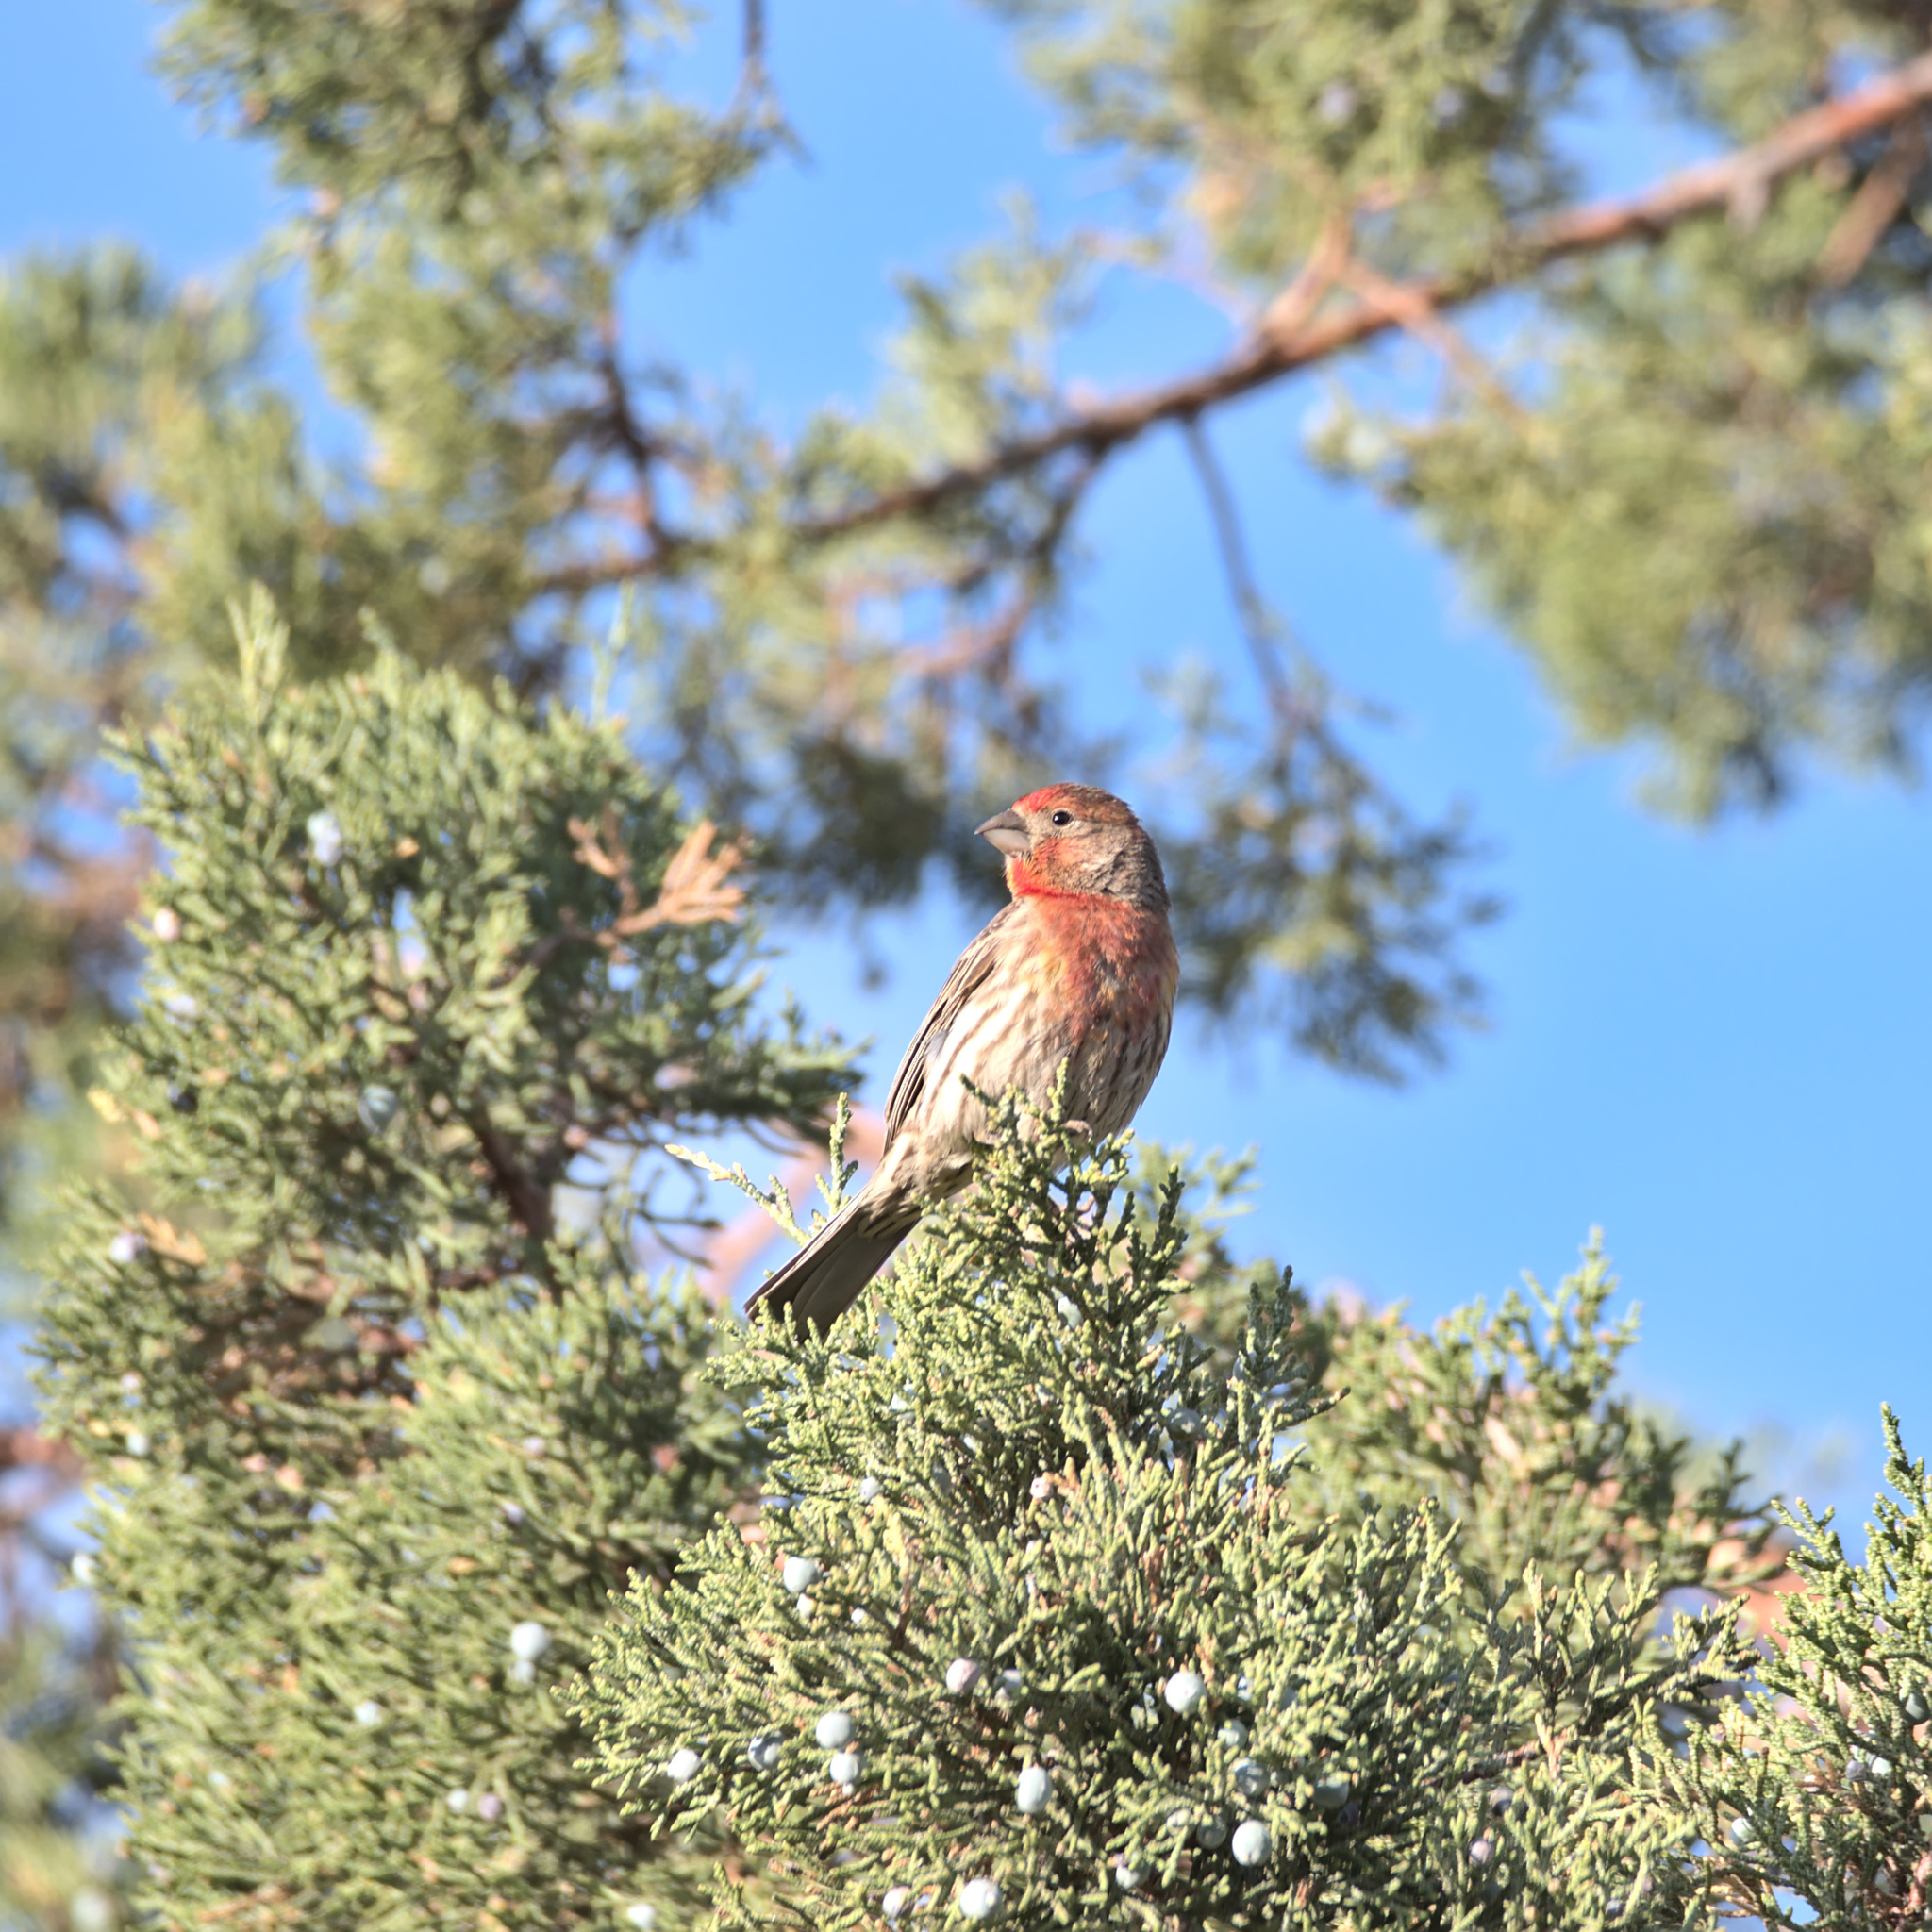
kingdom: Animalia
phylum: Chordata
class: Aves
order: Passeriformes
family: Fringillidae
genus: Haemorhous
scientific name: Haemorhous mexicanus
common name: House finch
